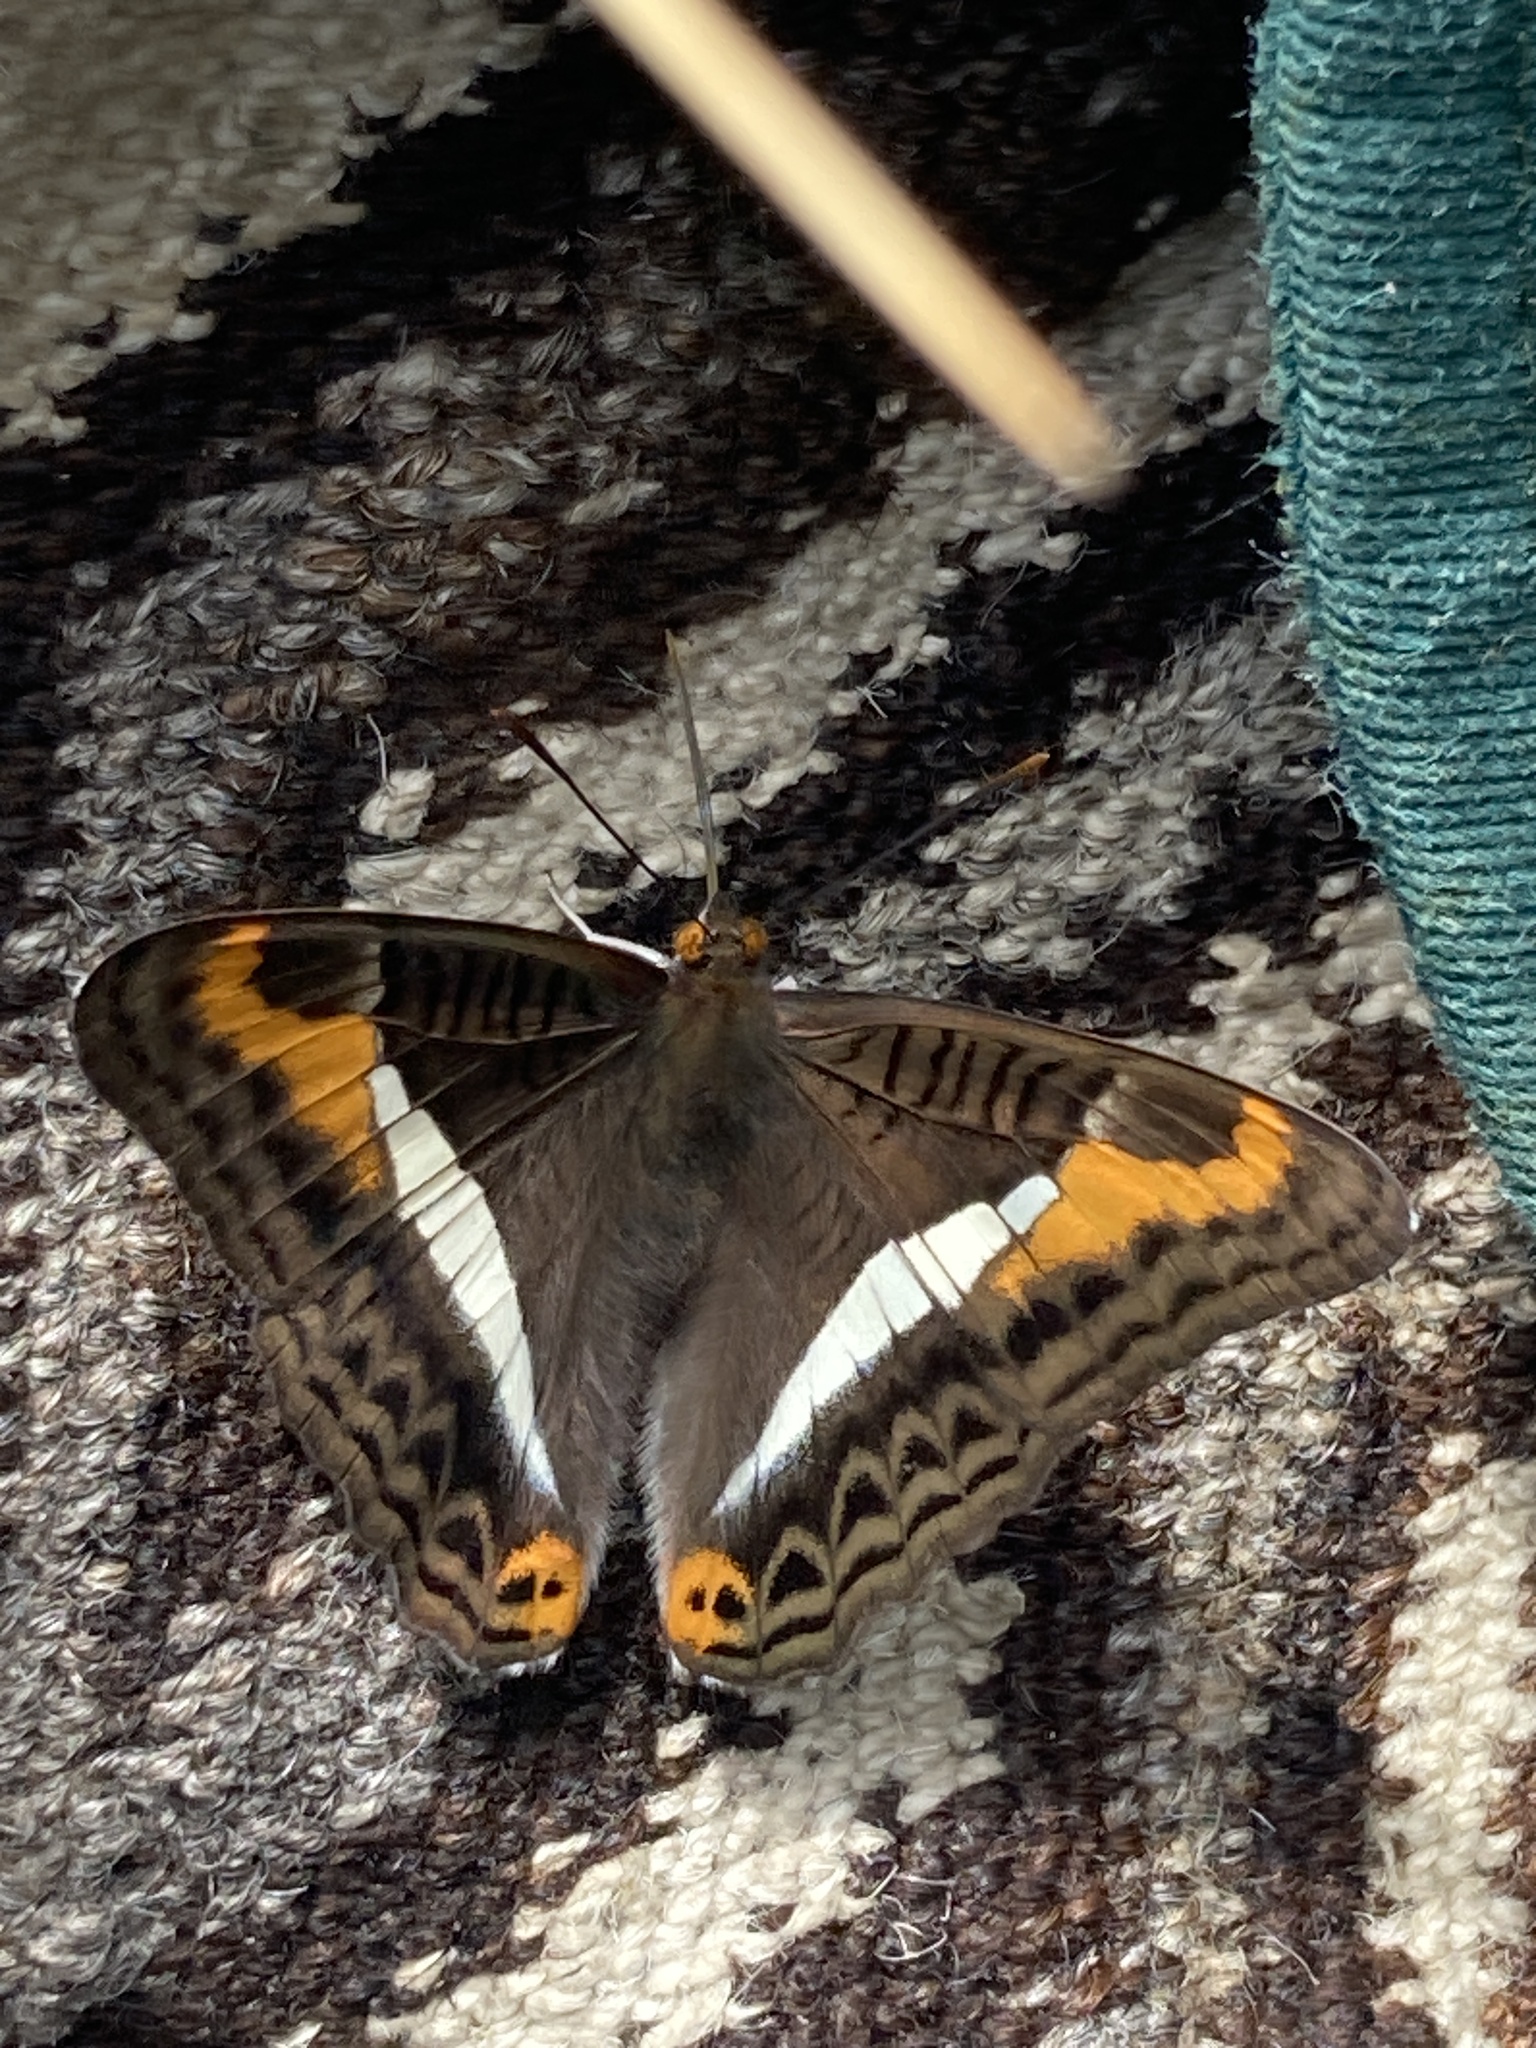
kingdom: Animalia
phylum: Arthropoda
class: Insecta
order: Lepidoptera
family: Nymphalidae
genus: Limenitis
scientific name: Limenitis corcyra
